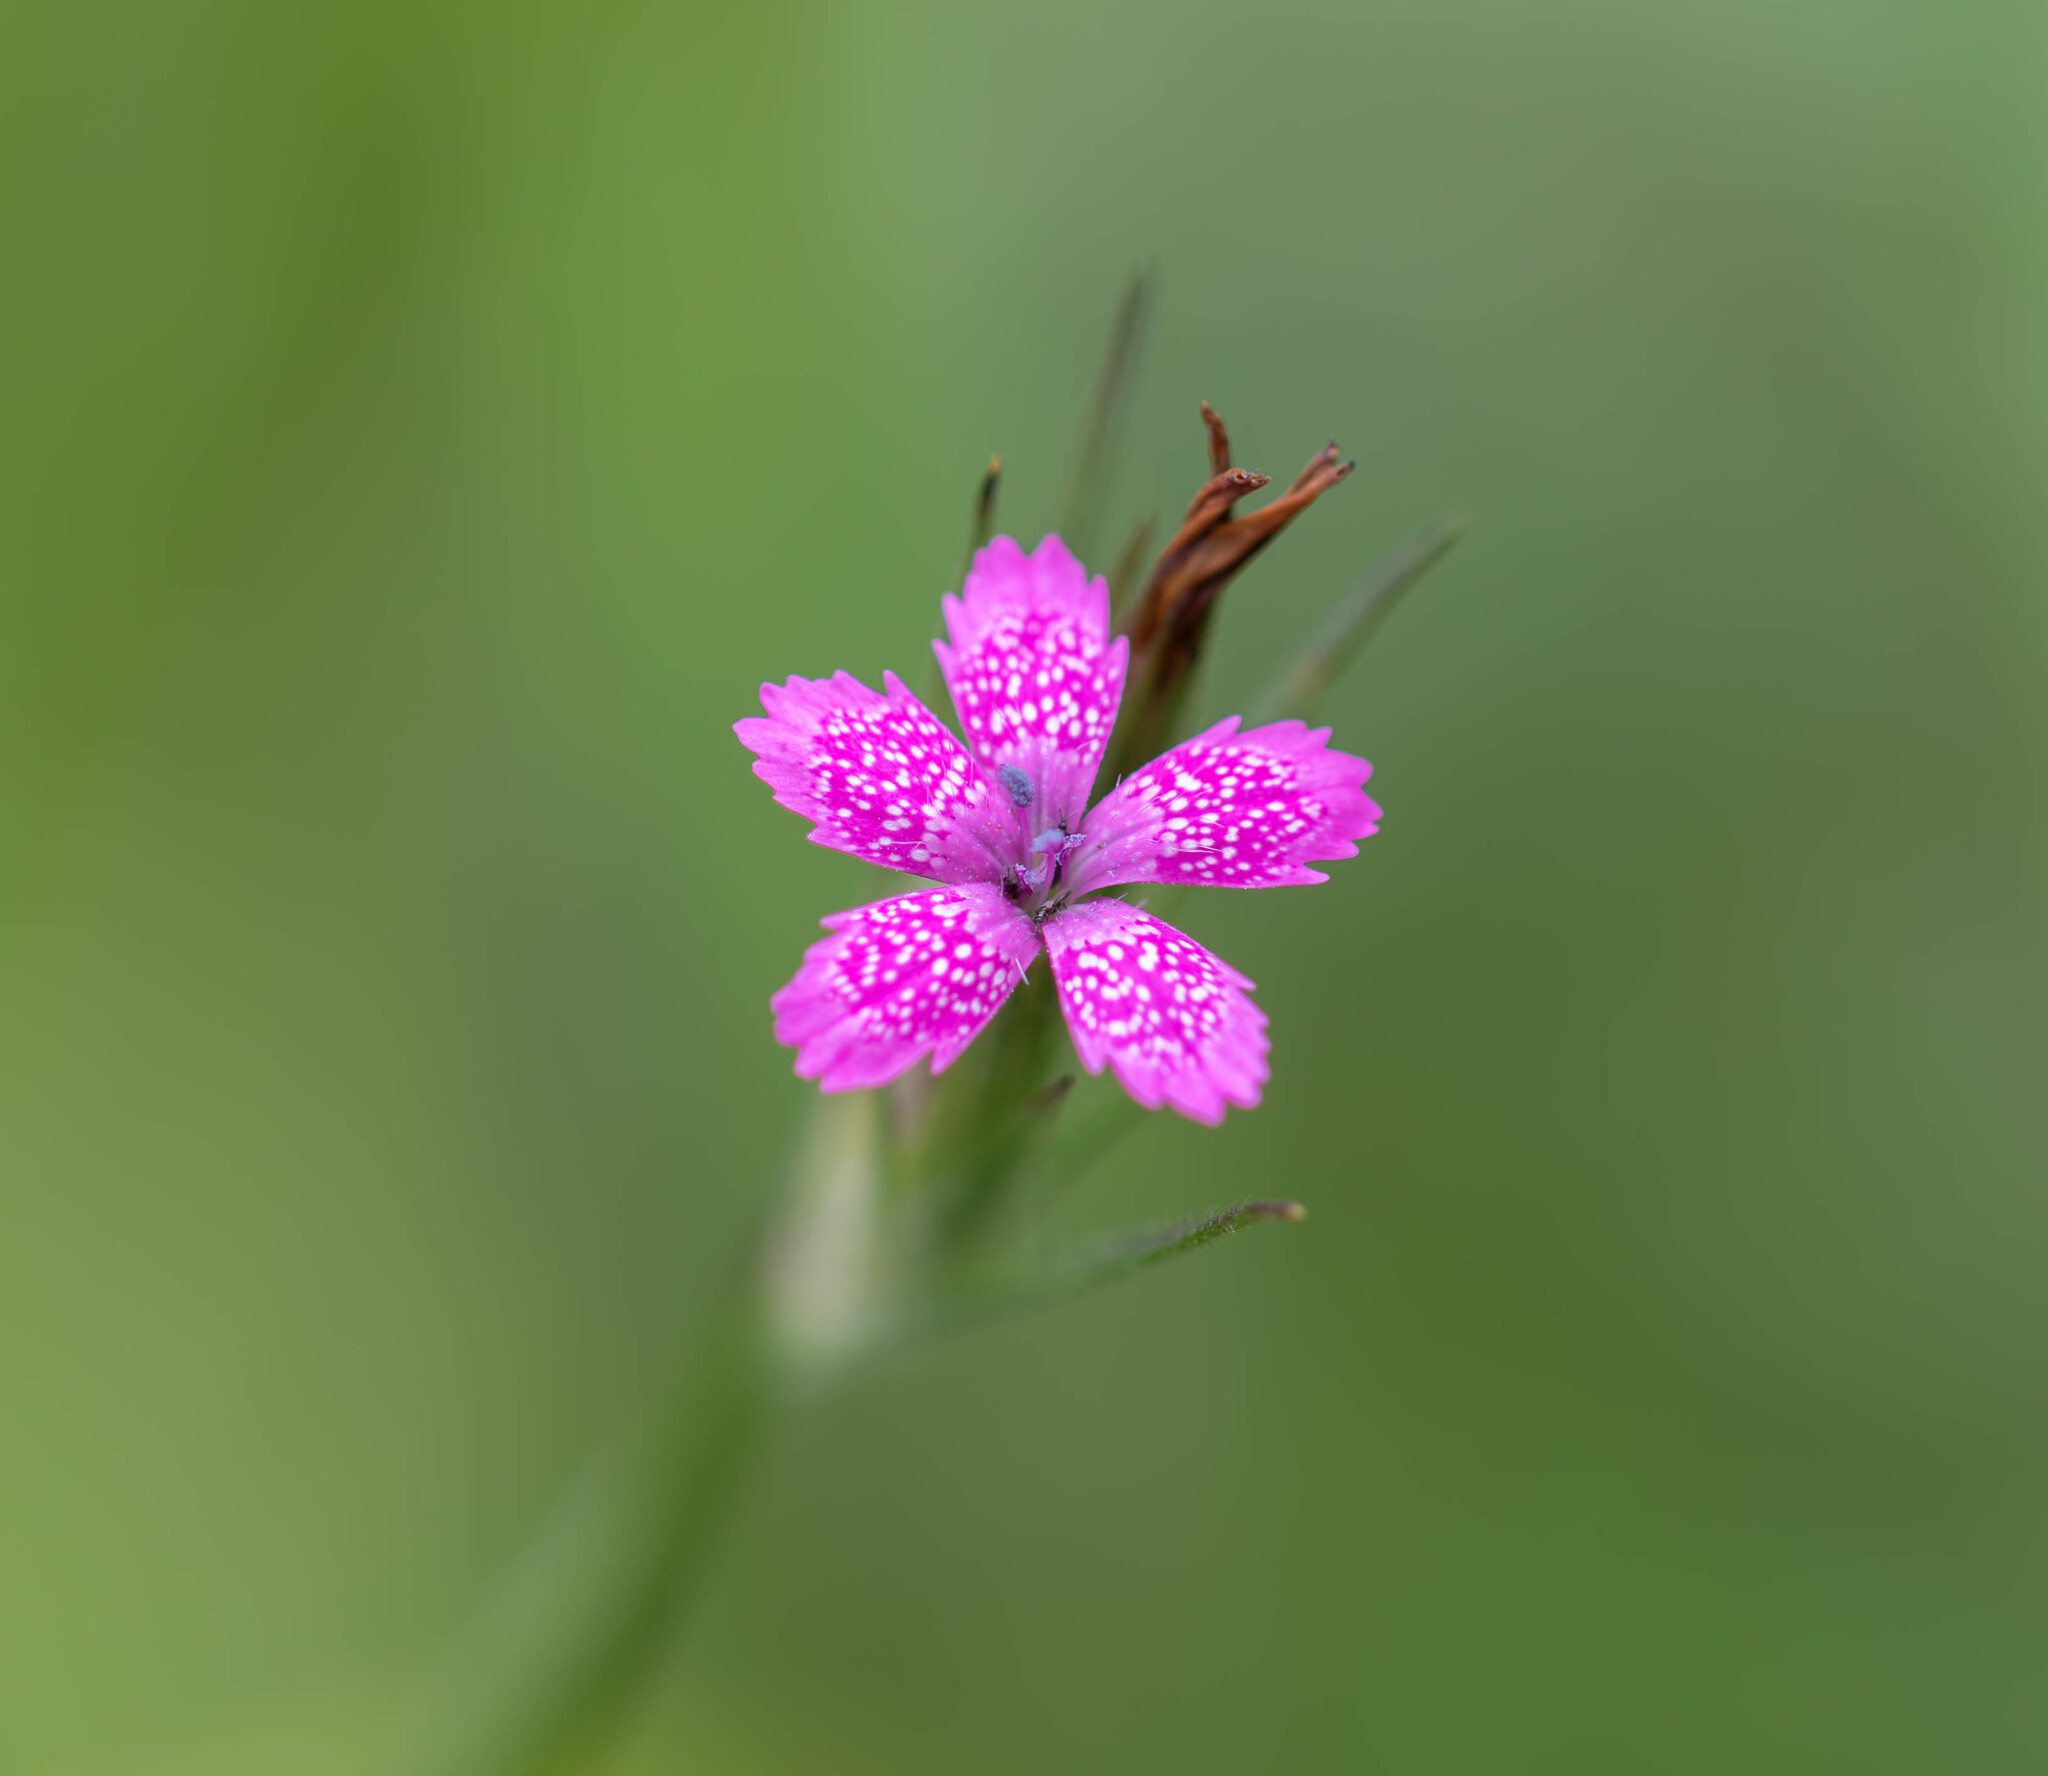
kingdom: Plantae
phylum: Tracheophyta
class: Magnoliopsida
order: Caryophyllales
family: Caryophyllaceae
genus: Dianthus
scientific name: Dianthus armeria
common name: Deptford pink
